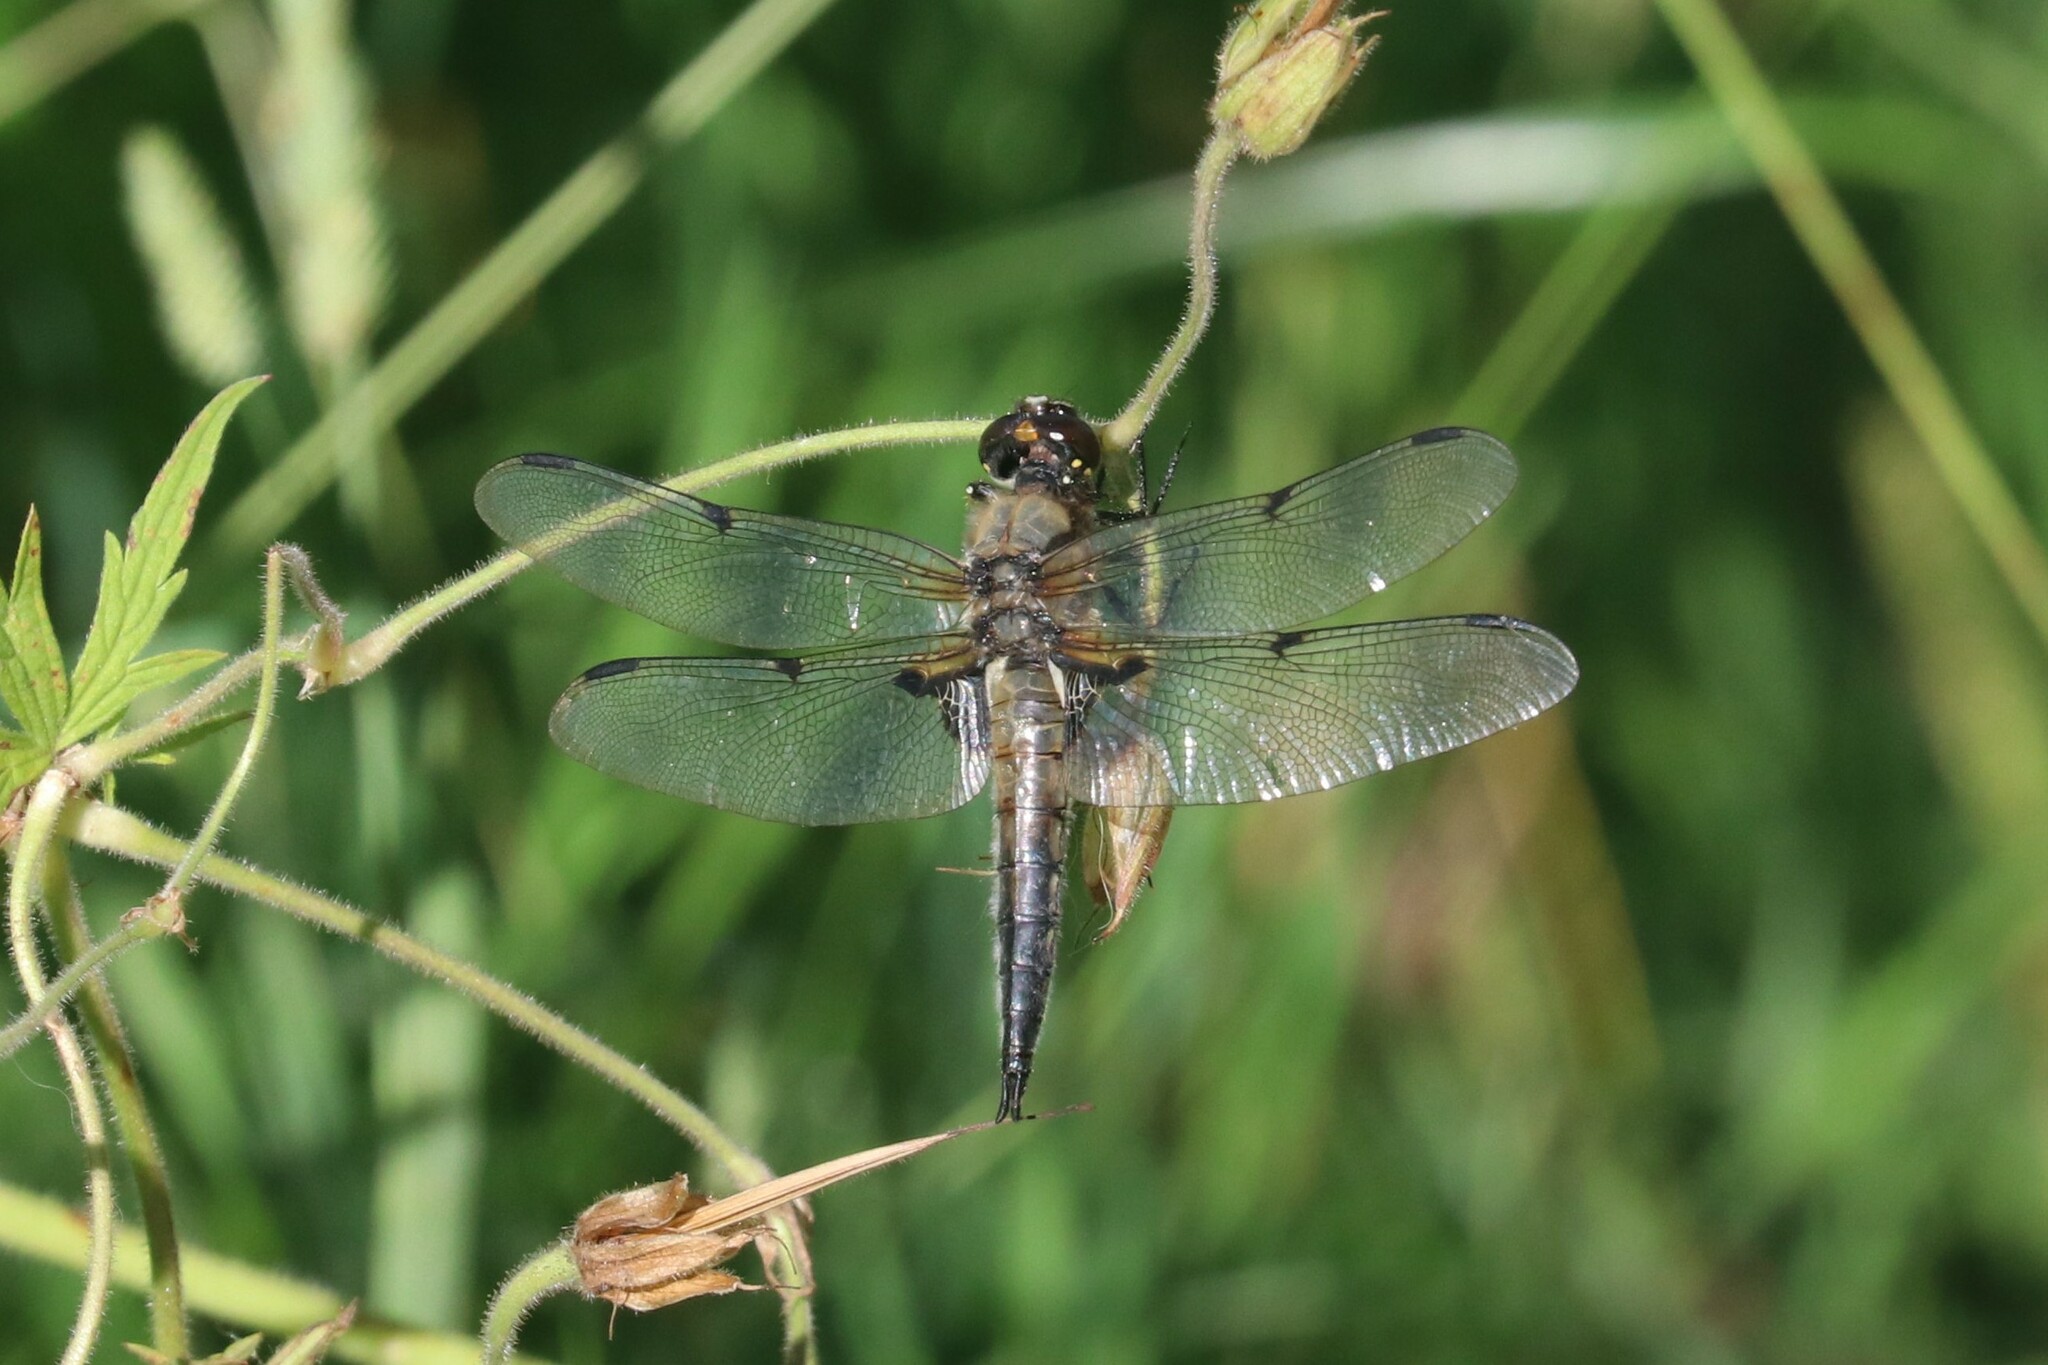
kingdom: Animalia
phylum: Arthropoda
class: Insecta
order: Odonata
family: Libellulidae
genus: Libellula
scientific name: Libellula quadrimaculata
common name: Four-spotted chaser
